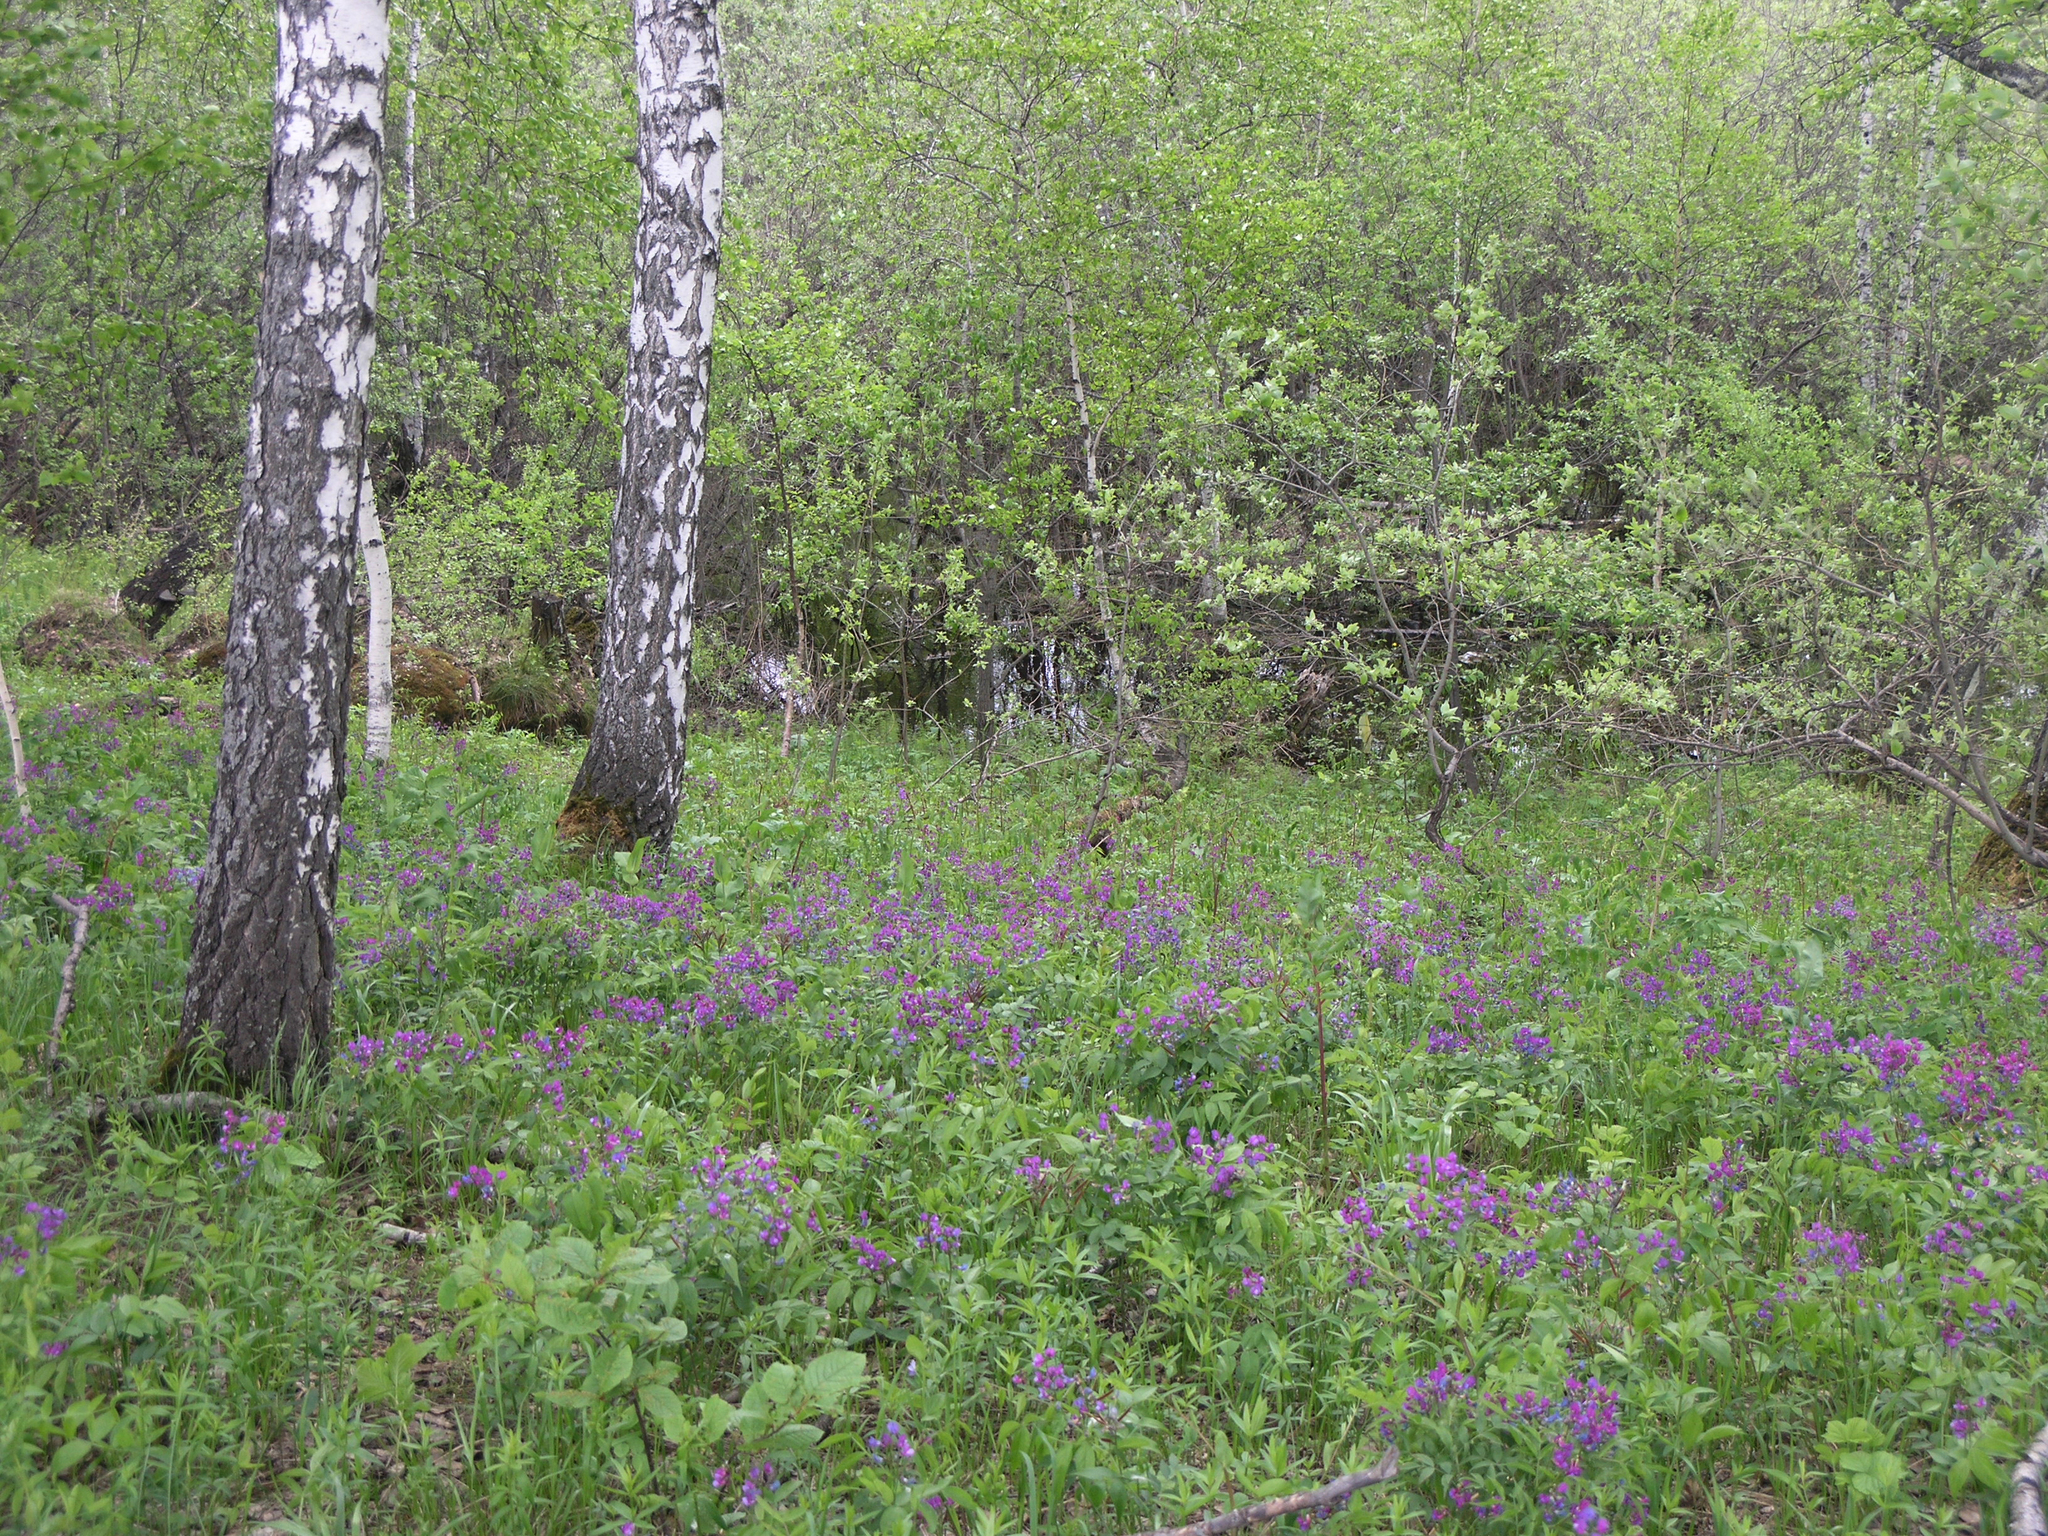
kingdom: Plantae
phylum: Tracheophyta
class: Magnoliopsida
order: Fabales
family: Fabaceae
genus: Lathyrus
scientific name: Lathyrus vernus
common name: Spring pea
